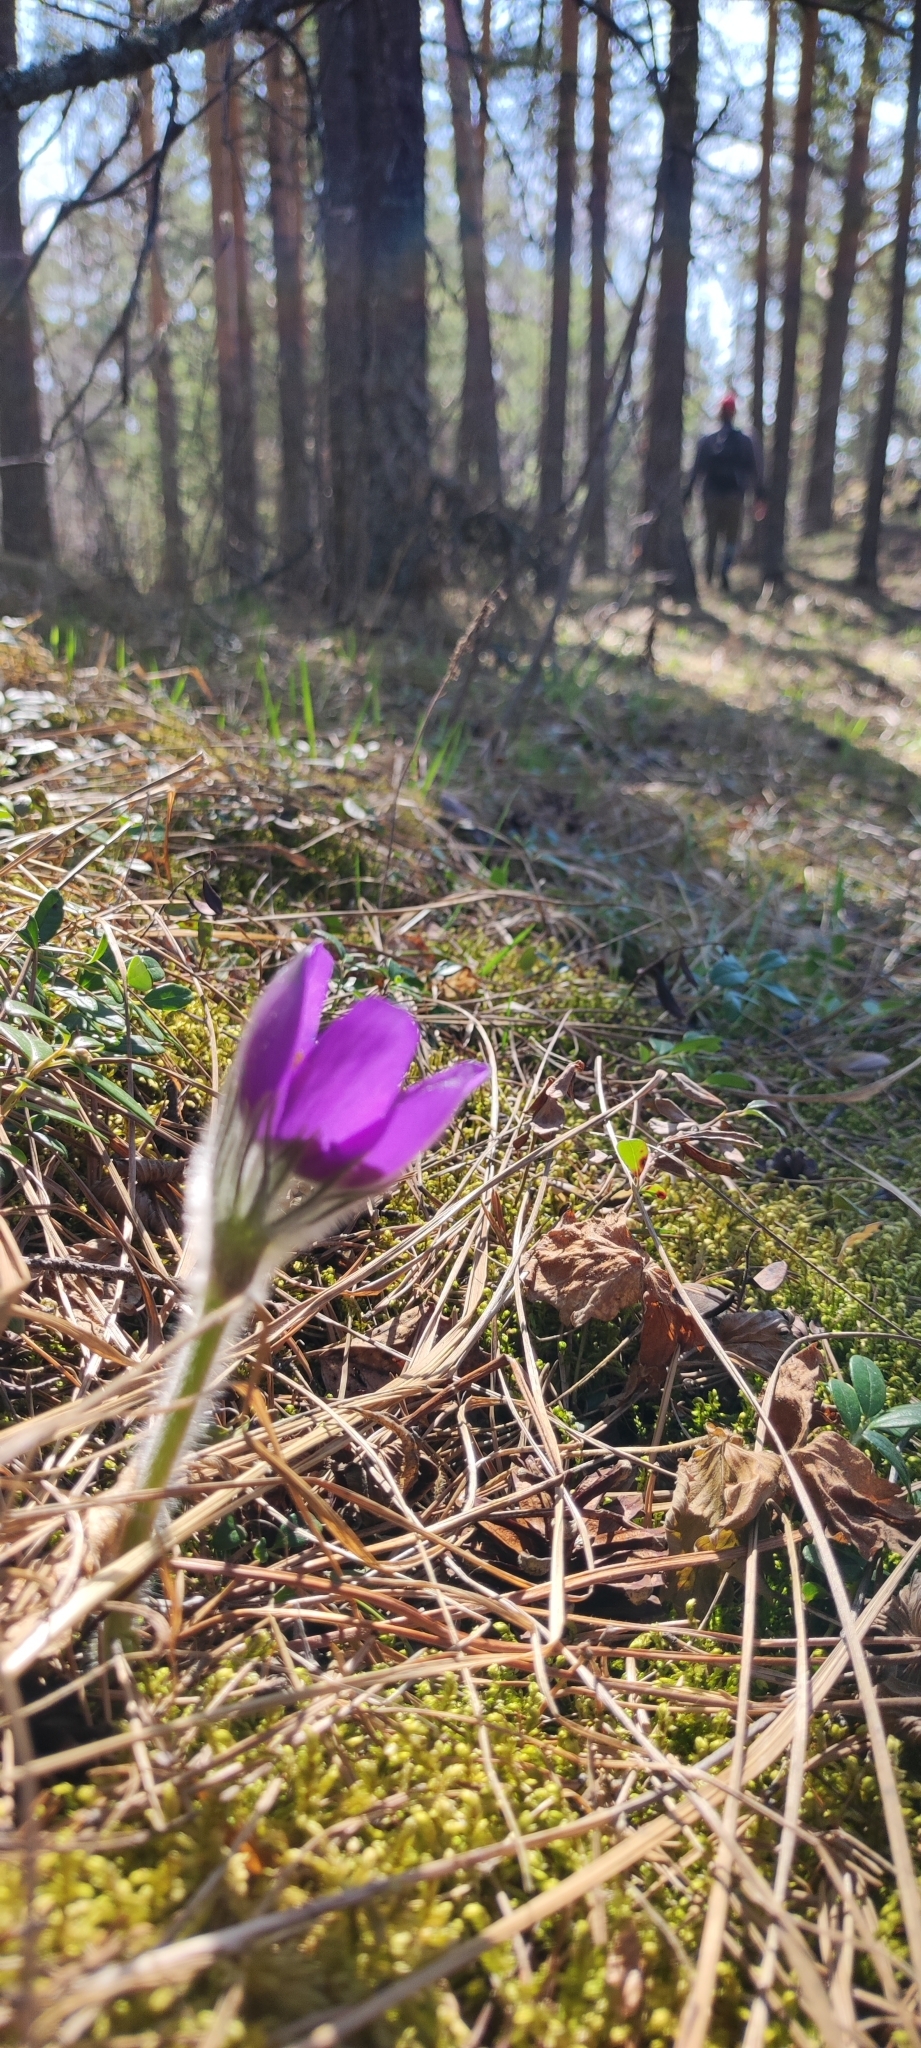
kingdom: Plantae
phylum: Tracheophyta
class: Magnoliopsida
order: Ranunculales
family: Ranunculaceae
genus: Pulsatilla
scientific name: Pulsatilla patens
